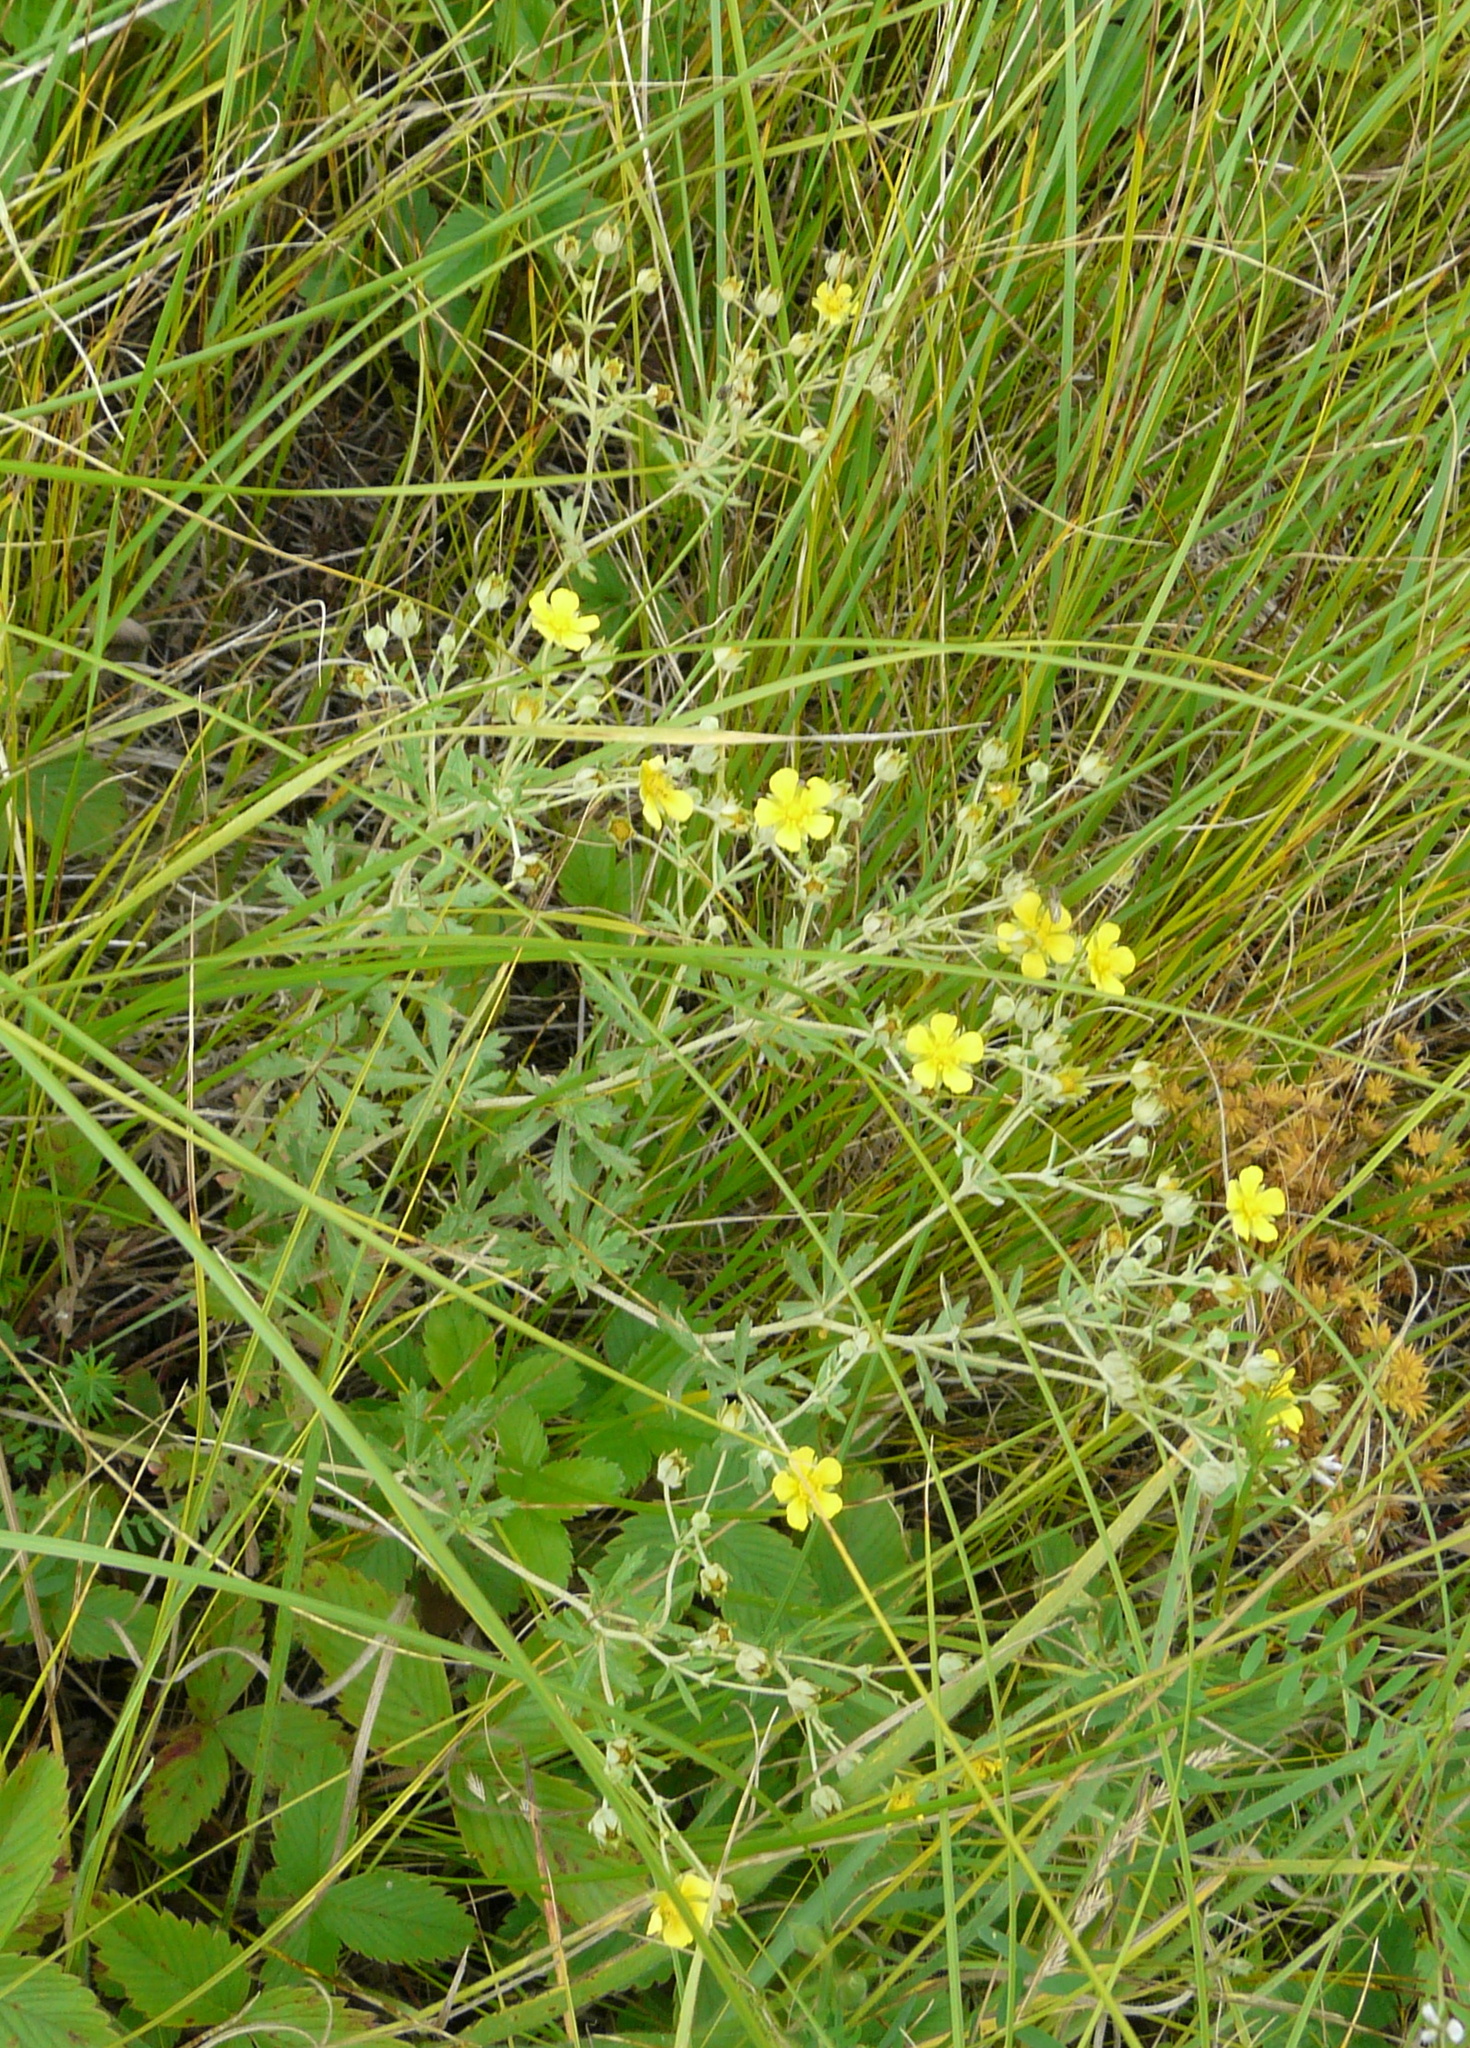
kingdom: Plantae
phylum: Tracheophyta
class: Magnoliopsida
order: Rosales
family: Rosaceae
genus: Potentilla
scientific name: Potentilla argentea
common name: Hoary cinquefoil
